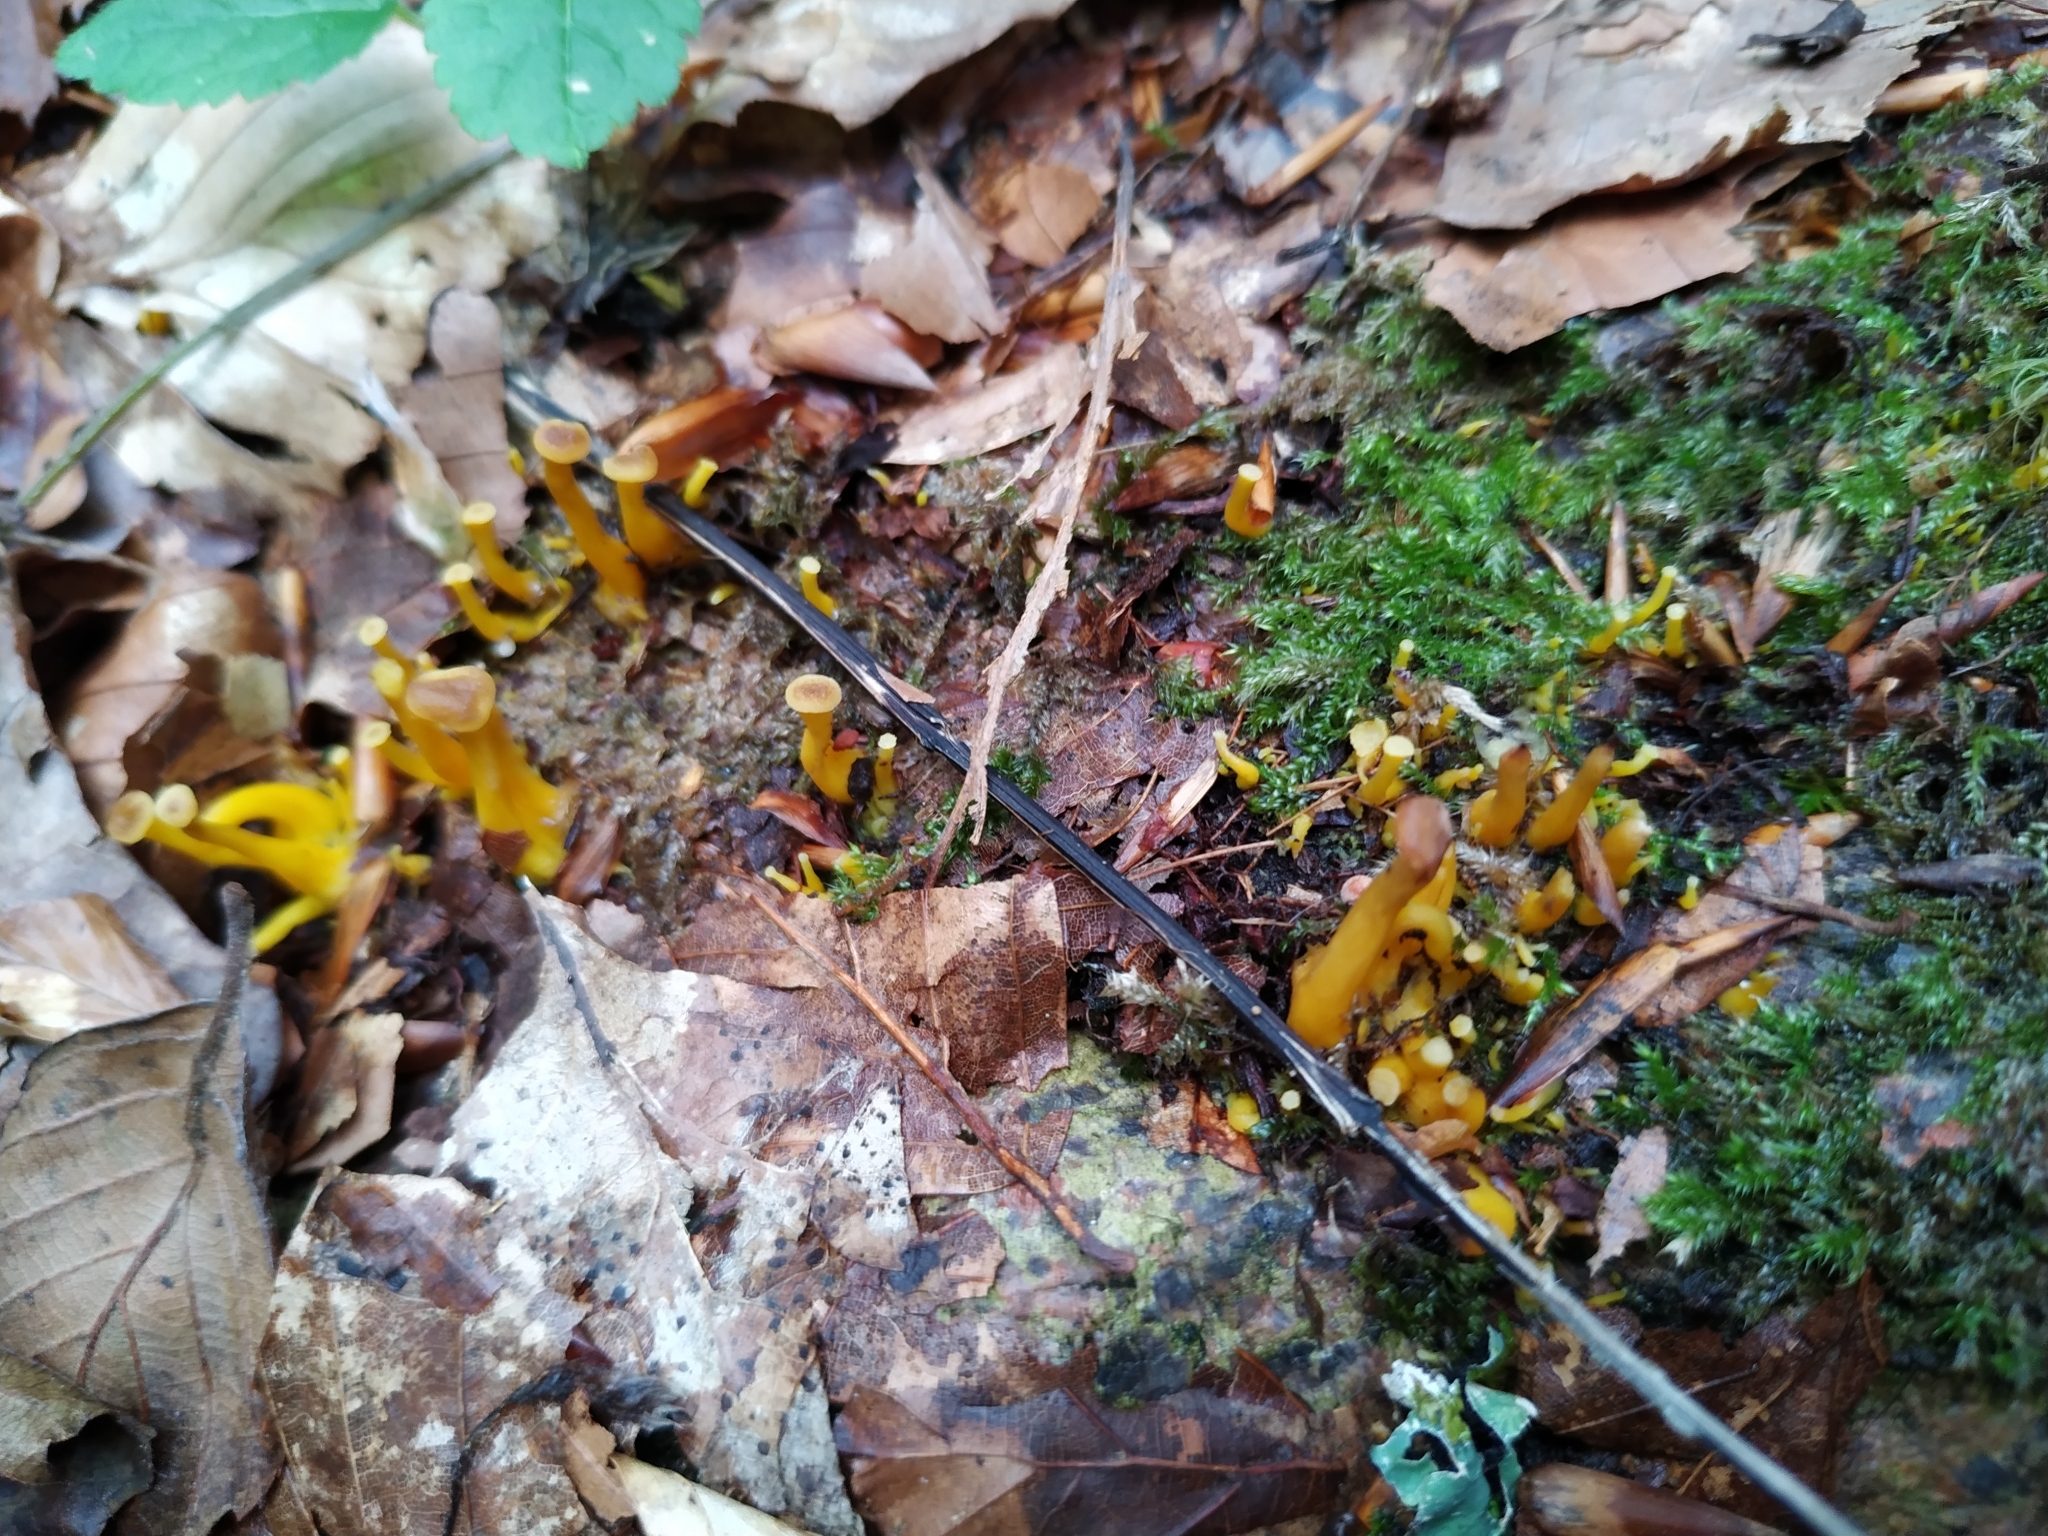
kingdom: Fungi
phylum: Basidiomycota
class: Agaricomycetes
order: Cantharellales
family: Hydnaceae
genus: Craterellus
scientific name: Craterellus tubaeformis
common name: Yellowfoot
